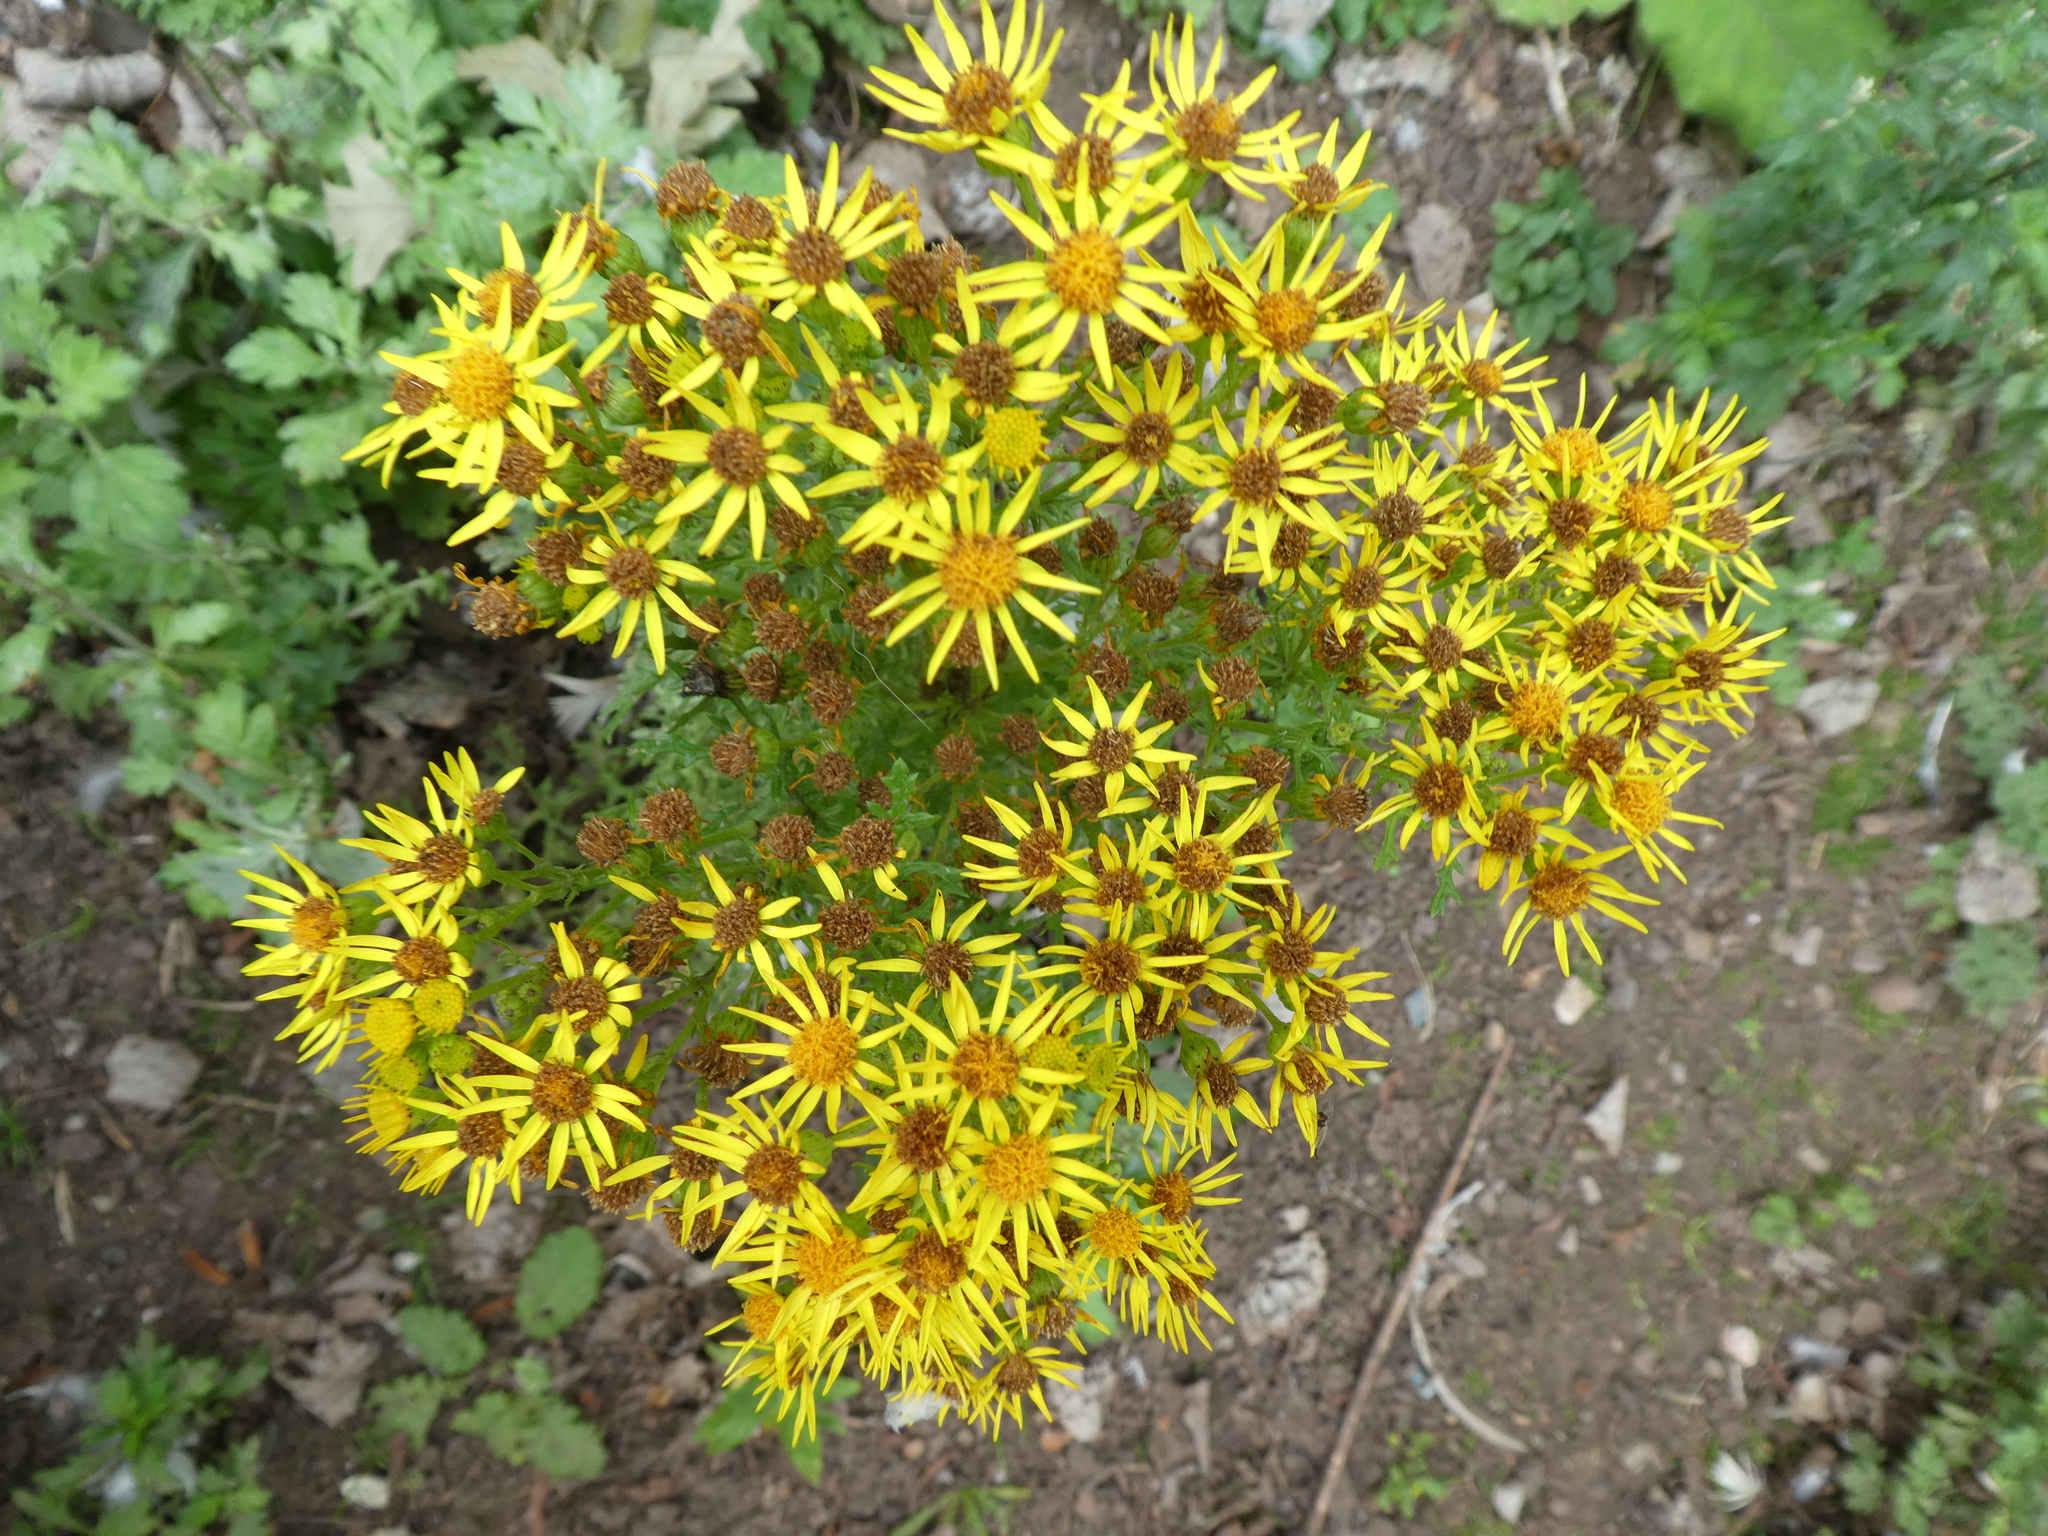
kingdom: Plantae
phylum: Tracheophyta
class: Magnoliopsida
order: Asterales
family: Asteraceae
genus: Jacobaea
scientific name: Jacobaea vulgaris
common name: Stinking willie
